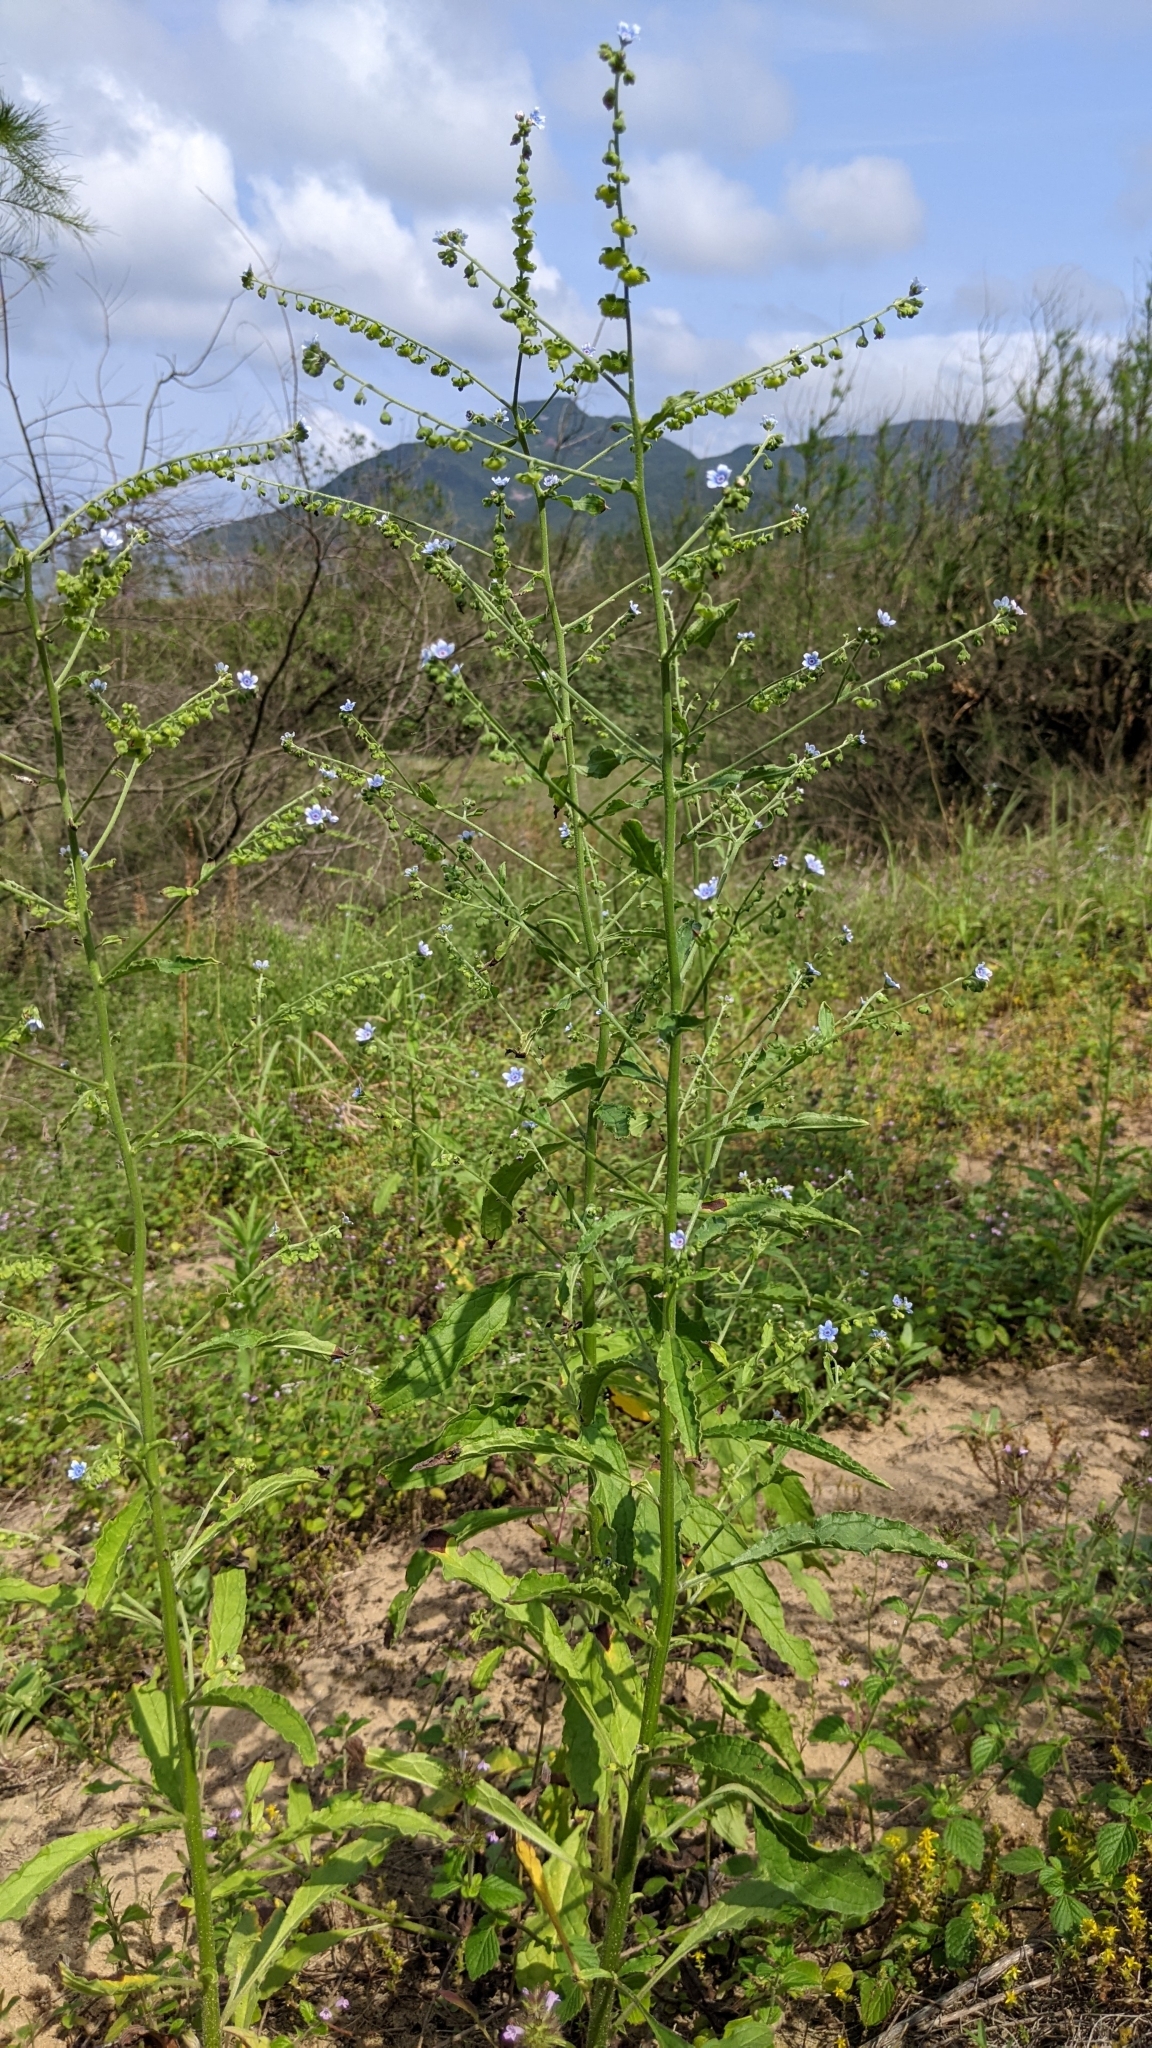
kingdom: Plantae
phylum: Tracheophyta
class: Magnoliopsida
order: Boraginales
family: Boraginaceae
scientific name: Boraginaceae
